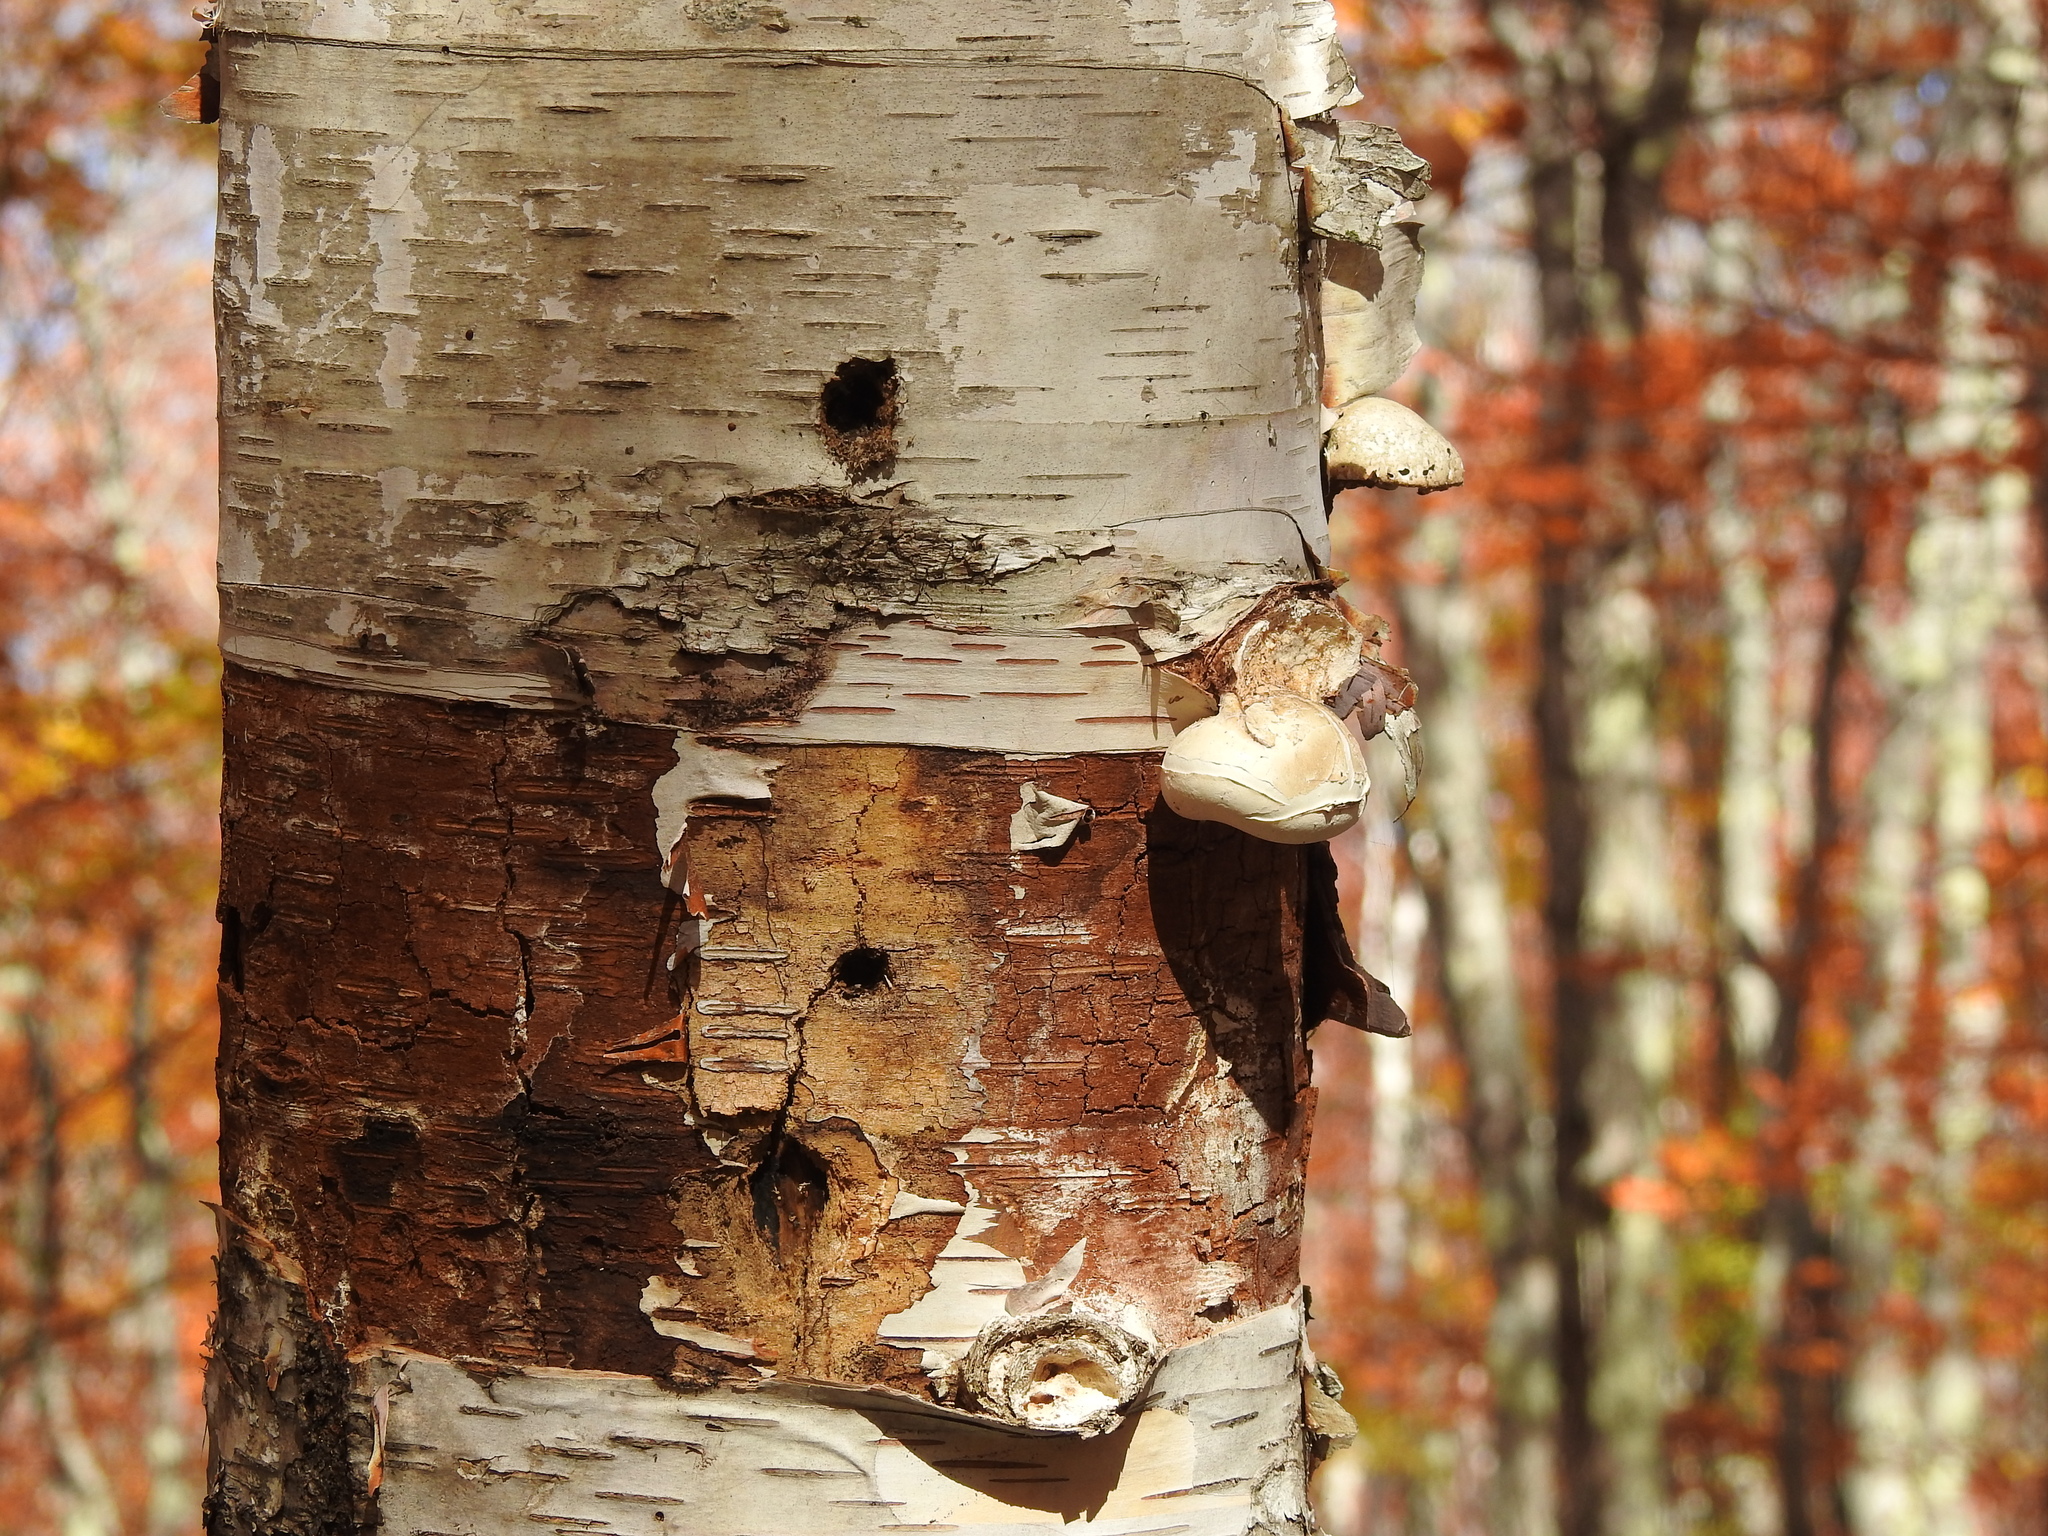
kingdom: Fungi
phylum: Basidiomycota
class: Agaricomycetes
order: Polyporales
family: Fomitopsidaceae
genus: Fomitopsis
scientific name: Fomitopsis betulina
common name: Birch polypore
